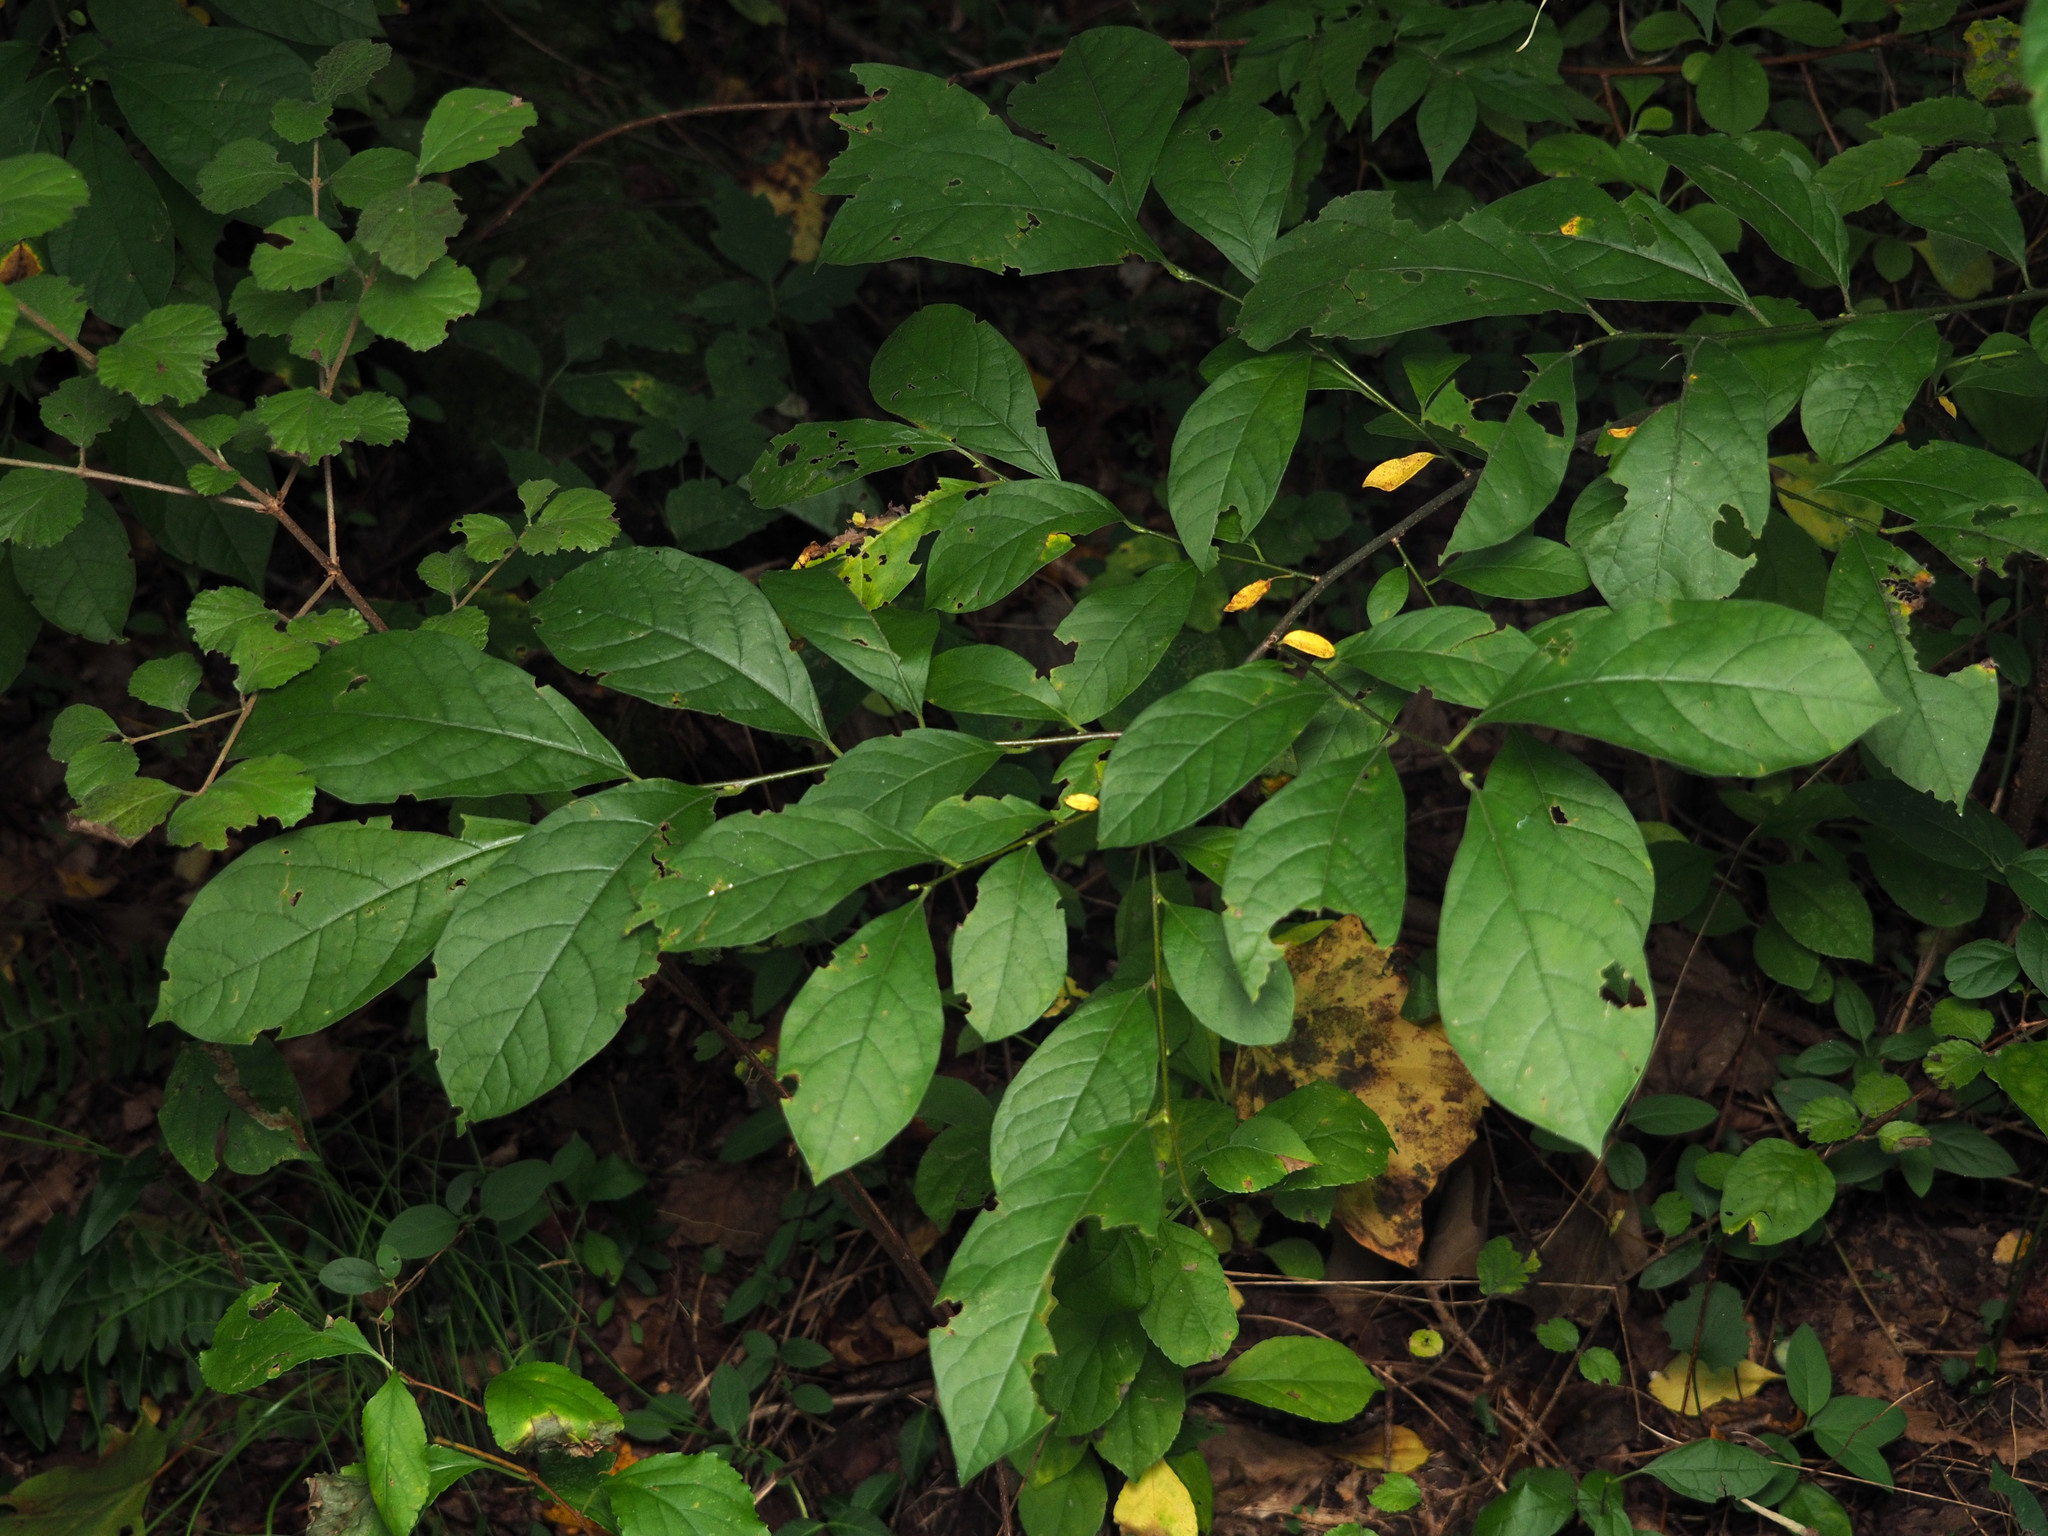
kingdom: Plantae
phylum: Tracheophyta
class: Magnoliopsida
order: Laurales
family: Lauraceae
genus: Lindera
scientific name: Lindera benzoin
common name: Spicebush
